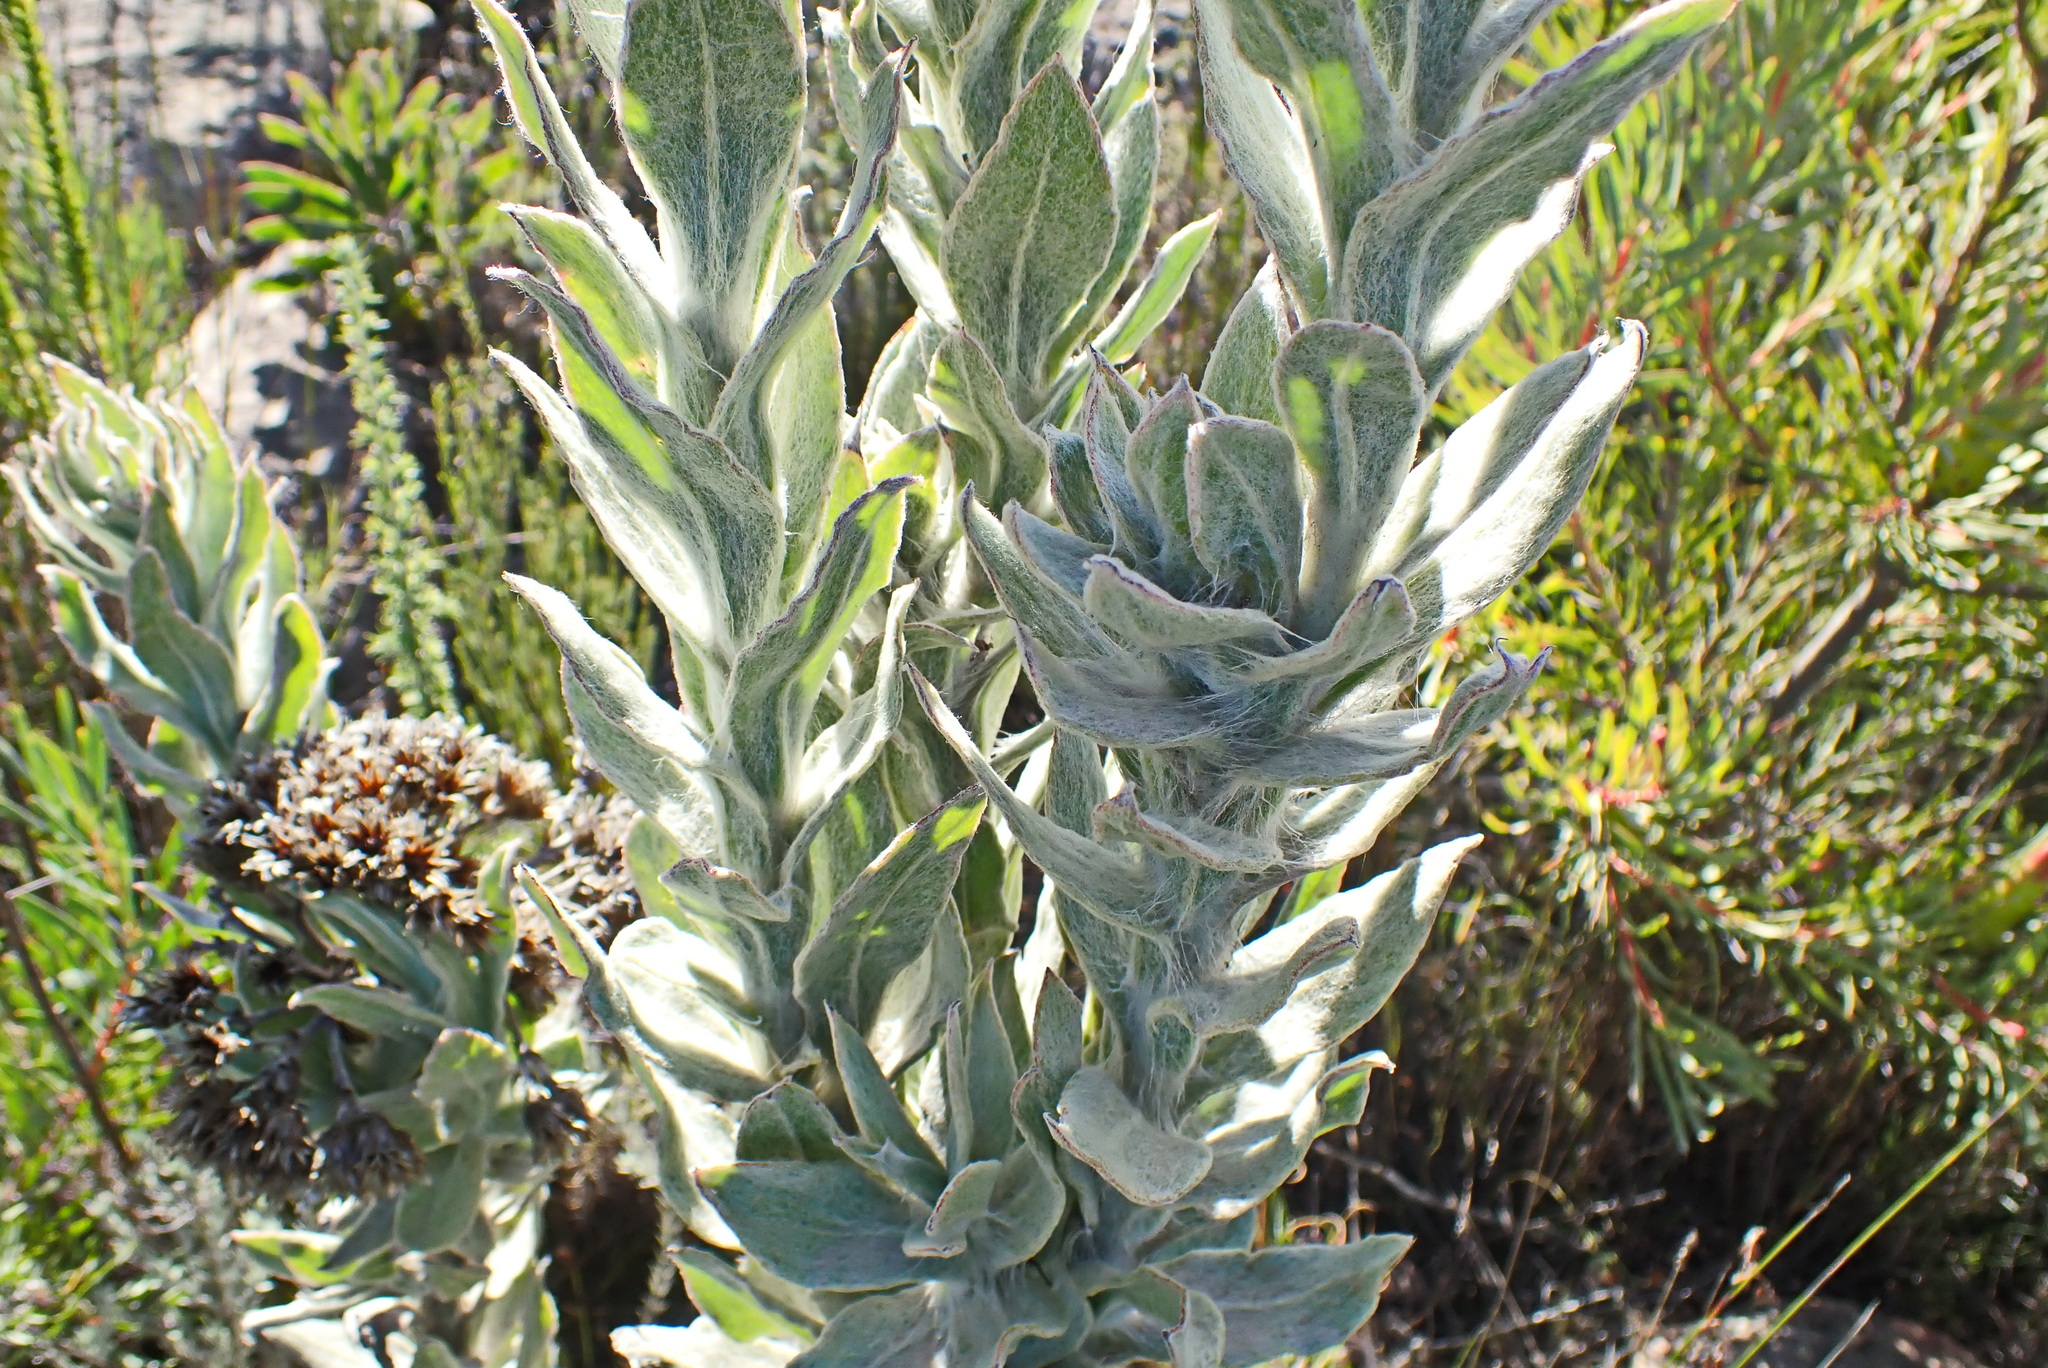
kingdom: Plantae
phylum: Tracheophyta
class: Magnoliopsida
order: Asterales
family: Asteraceae
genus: Syncarpha
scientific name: Syncarpha milleflora
